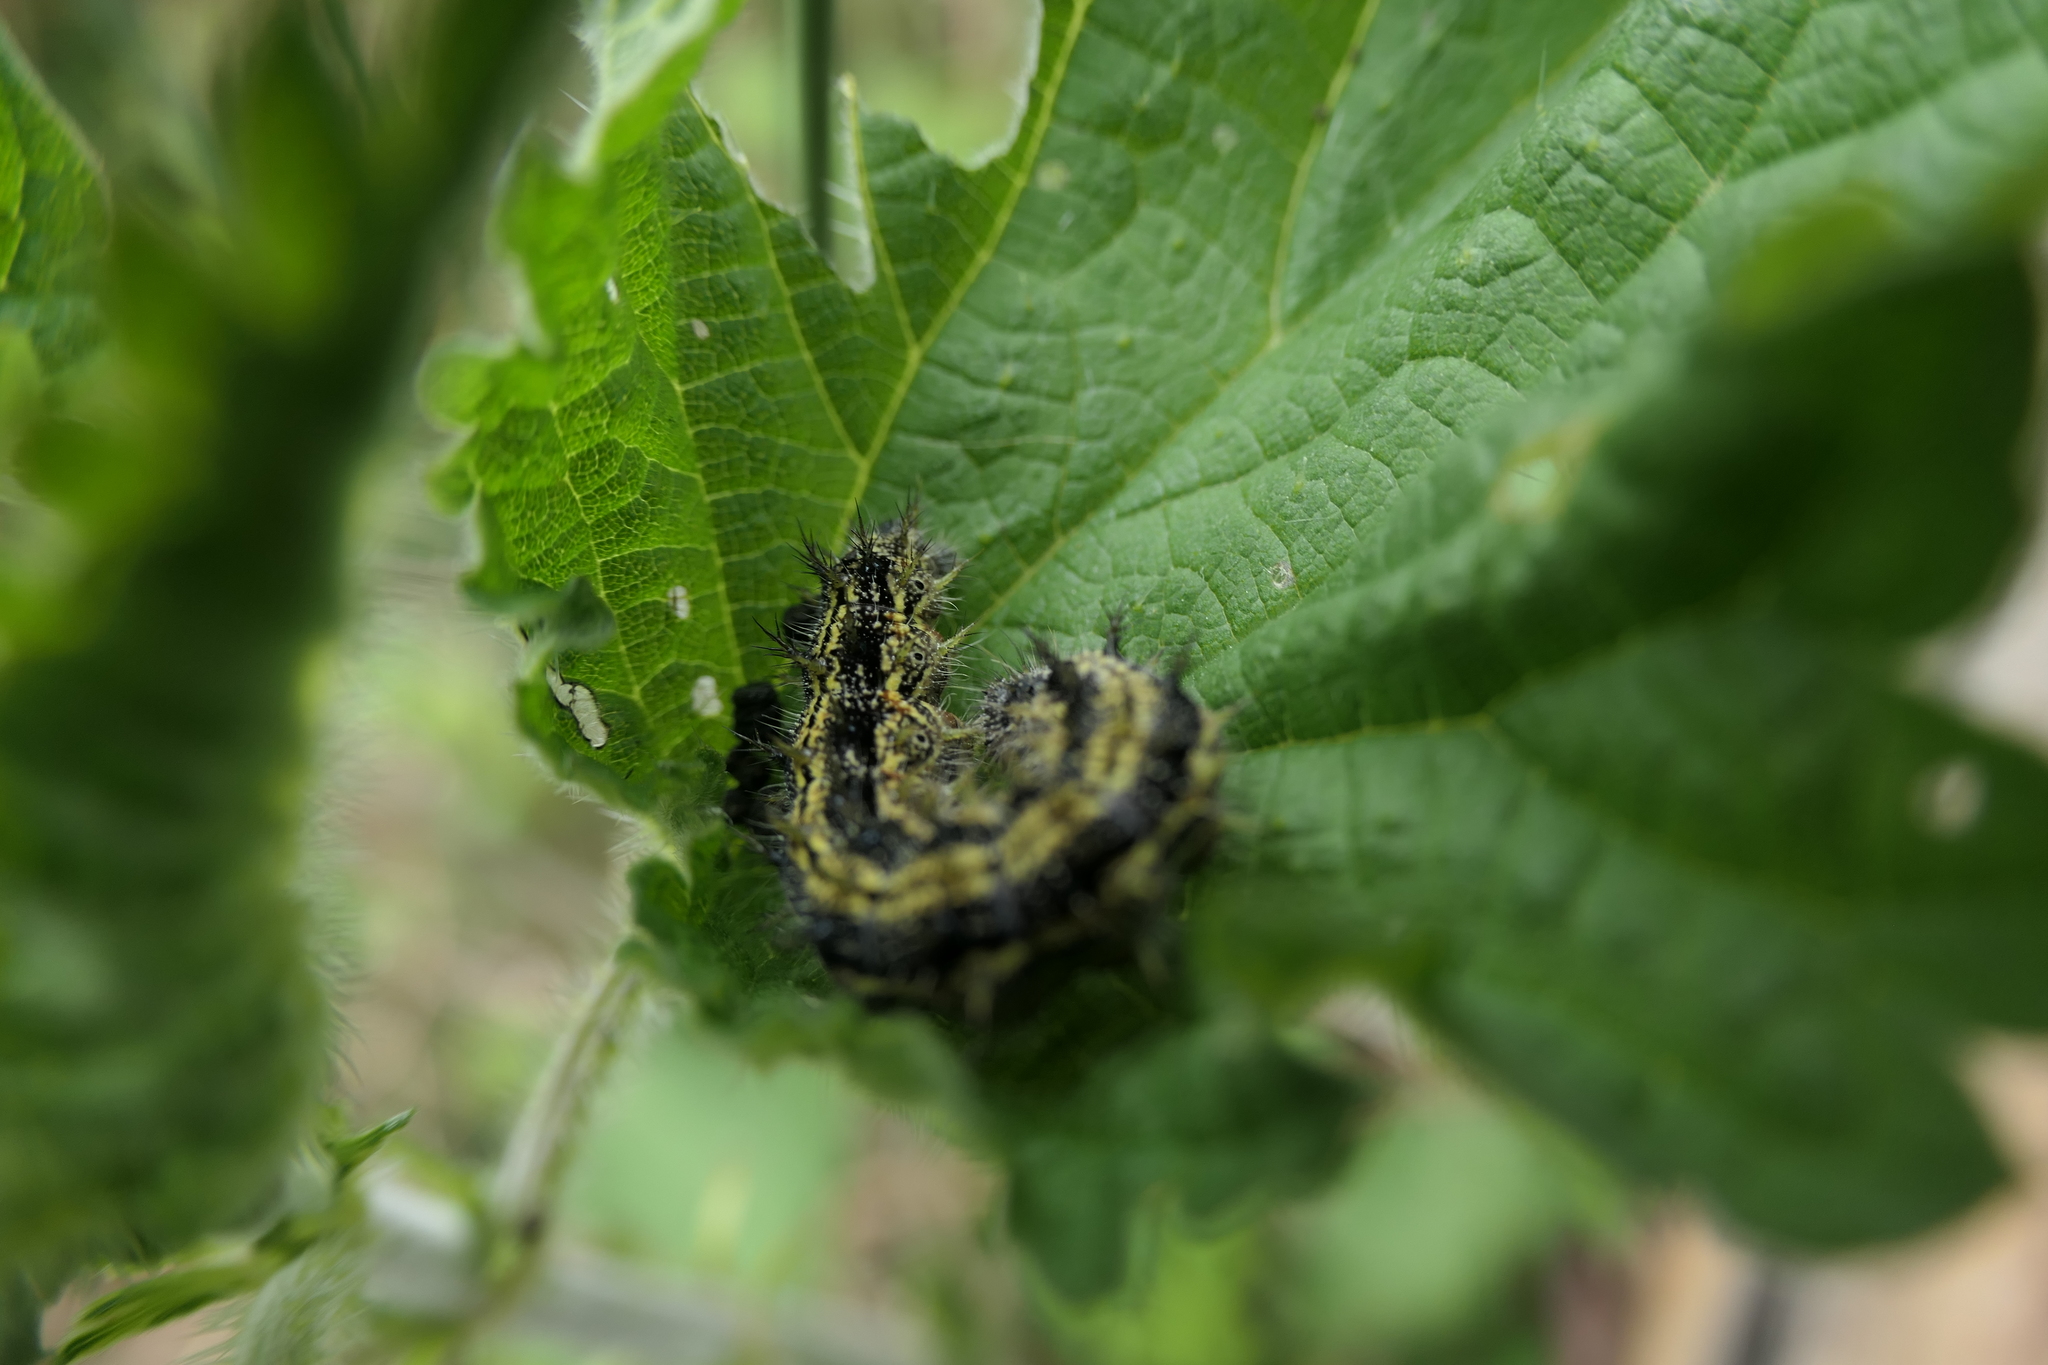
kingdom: Animalia
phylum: Arthropoda
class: Insecta
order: Lepidoptera
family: Nymphalidae
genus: Aglais
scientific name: Aglais urticae
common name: Small tortoiseshell
